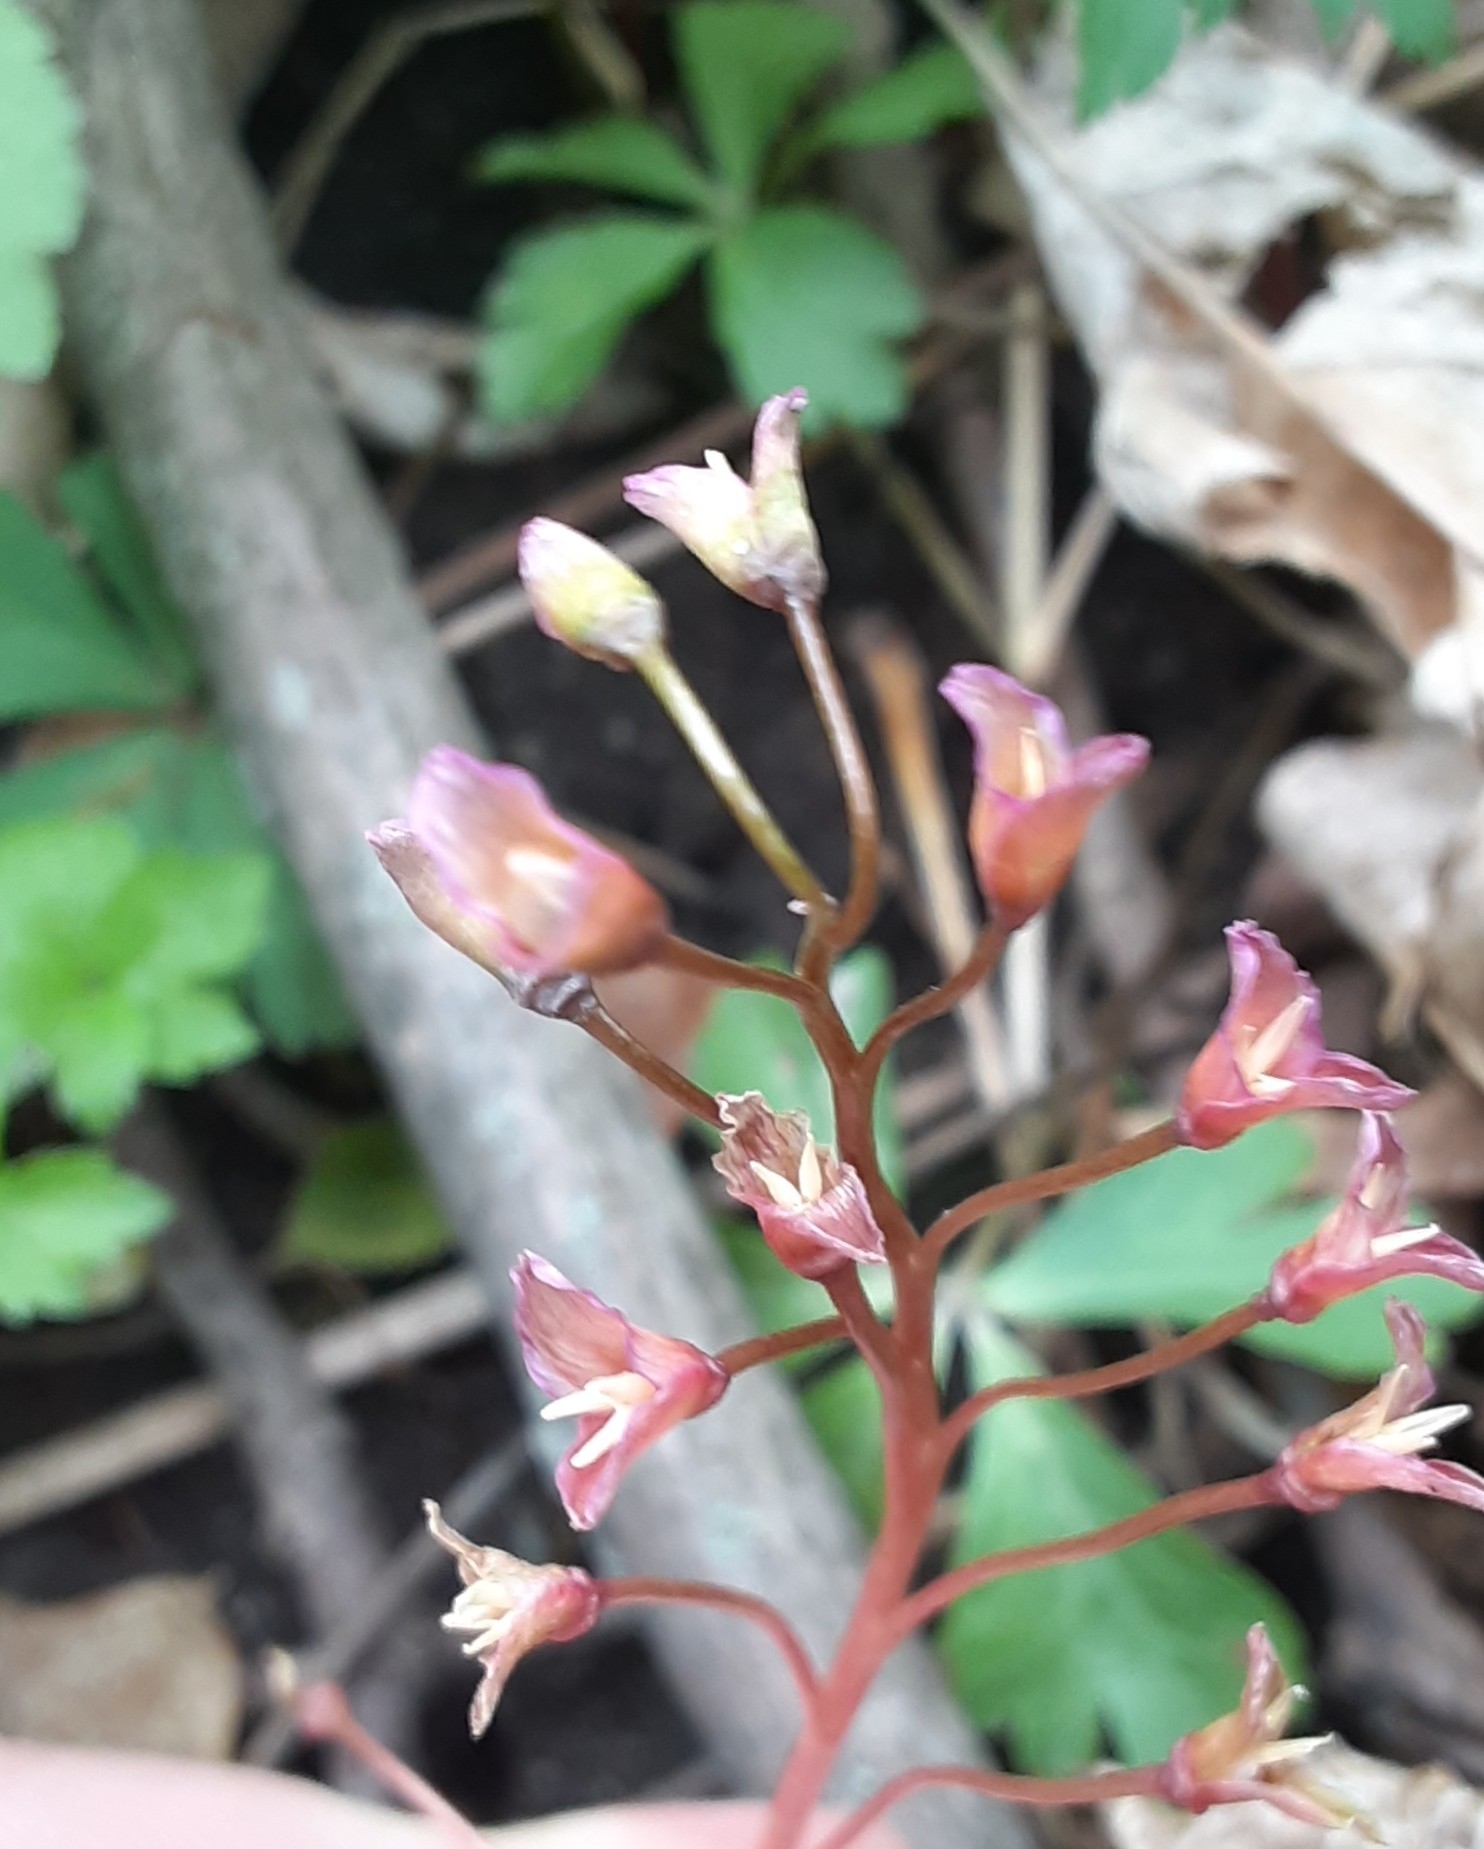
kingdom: Plantae
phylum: Tracheophyta
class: Magnoliopsida
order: Caryophyllales
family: Montiaceae
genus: Claytonia
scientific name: Claytonia virginica
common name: Virginia springbeauty
